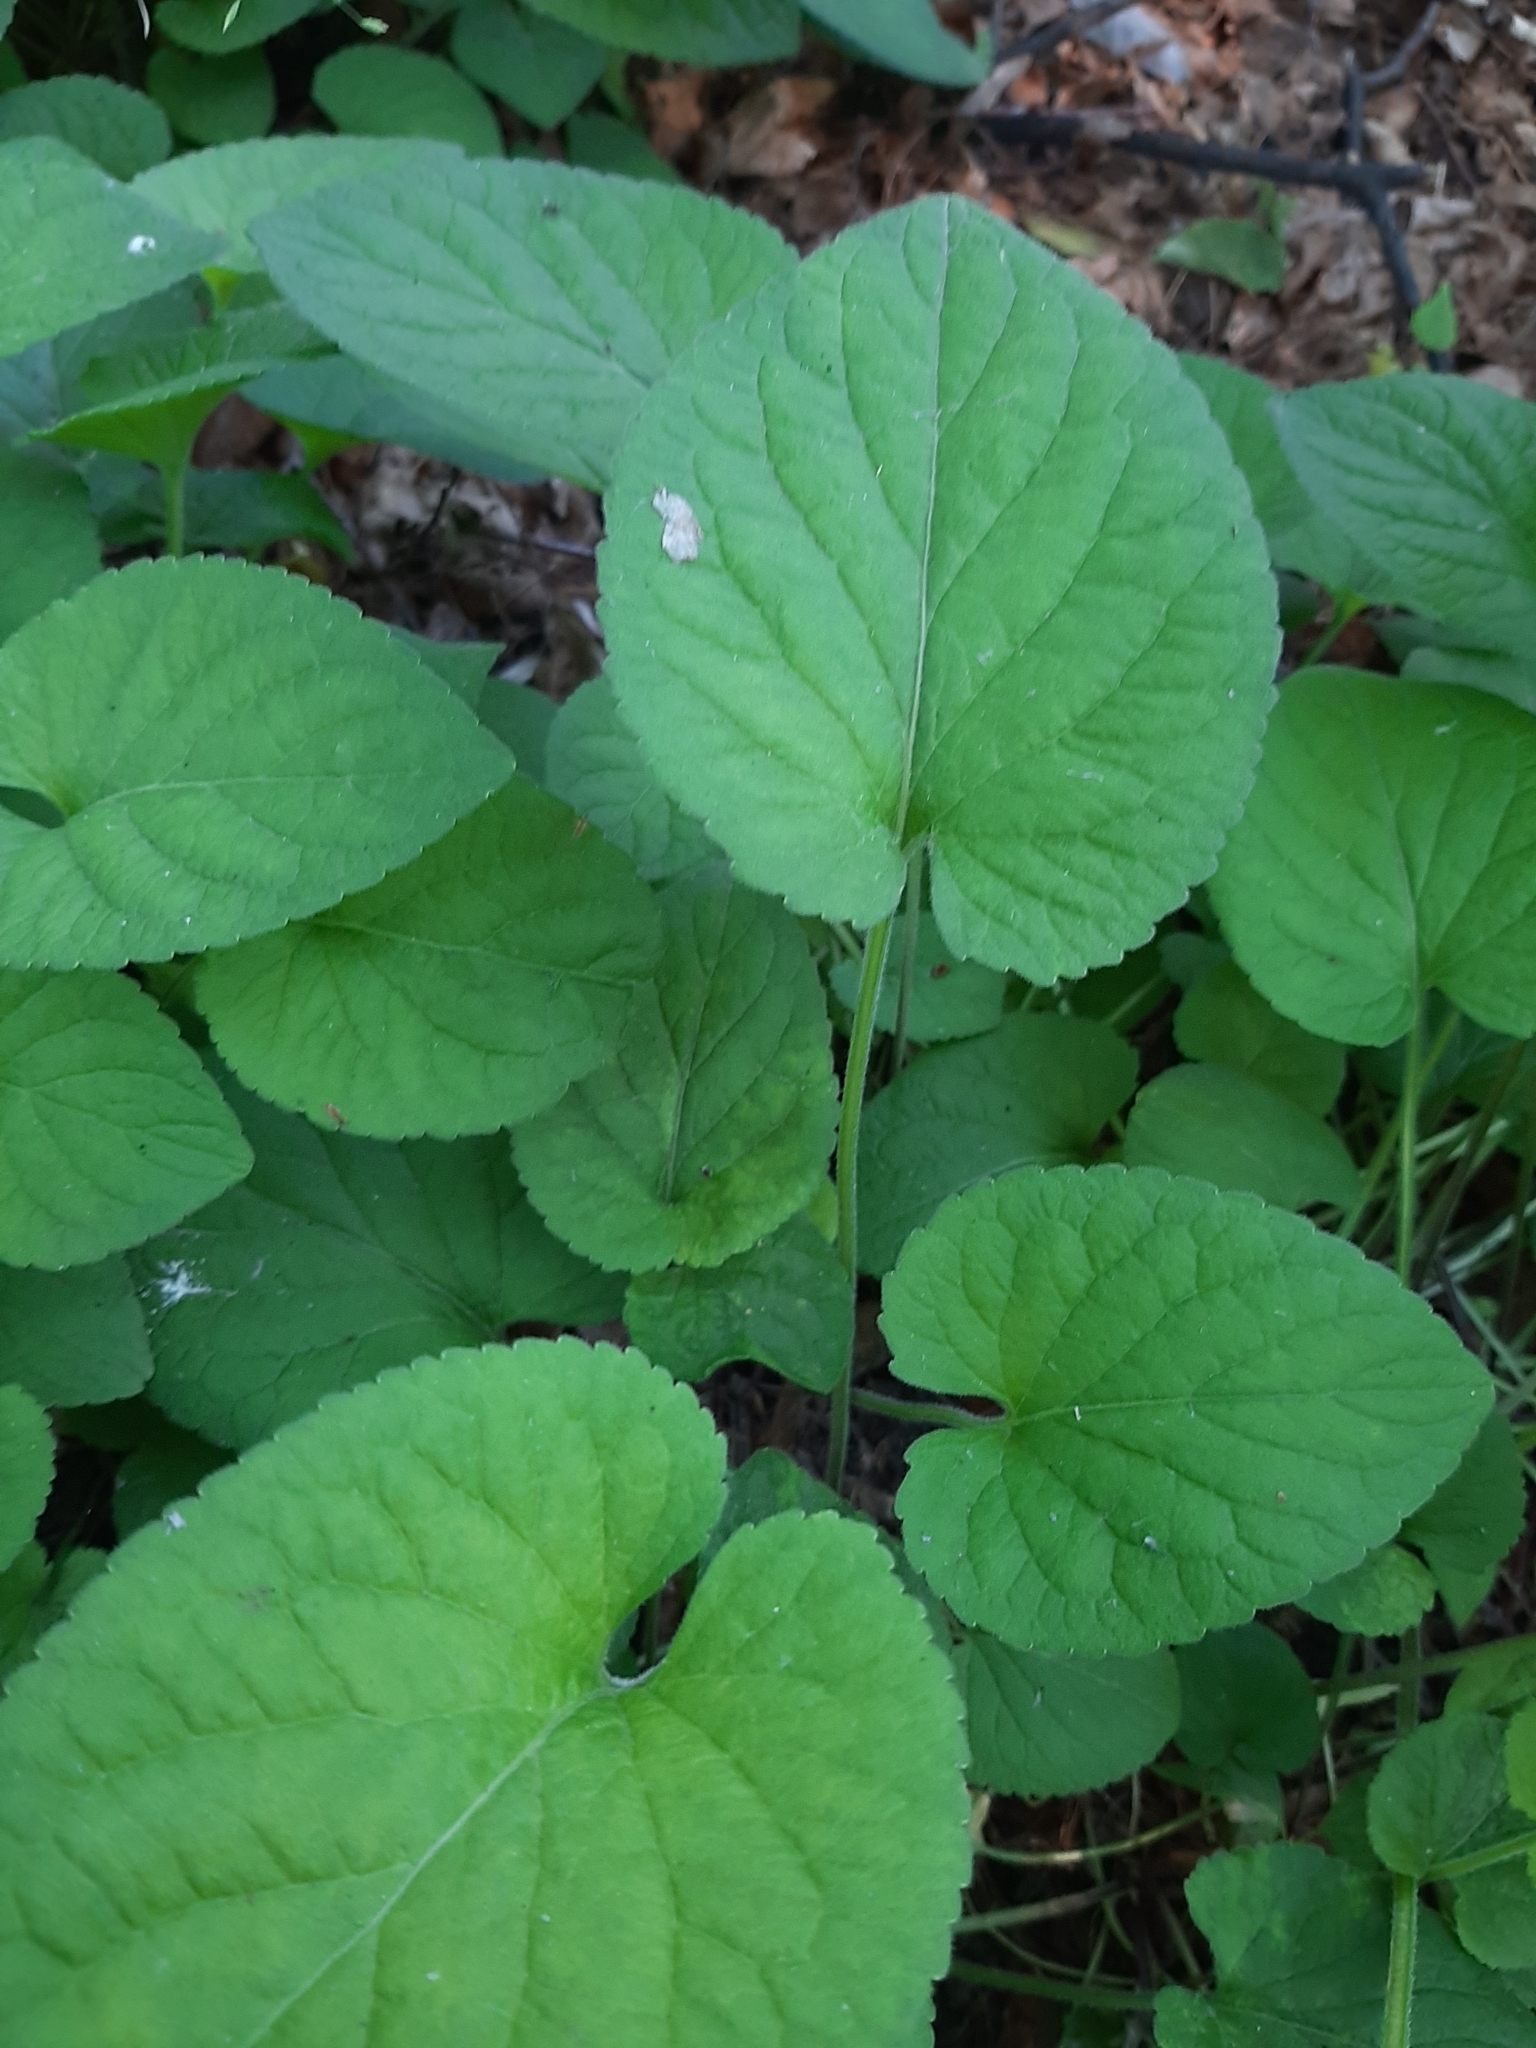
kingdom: Plantae
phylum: Tracheophyta
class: Magnoliopsida
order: Malpighiales
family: Violaceae
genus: Viola
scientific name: Viola collina
